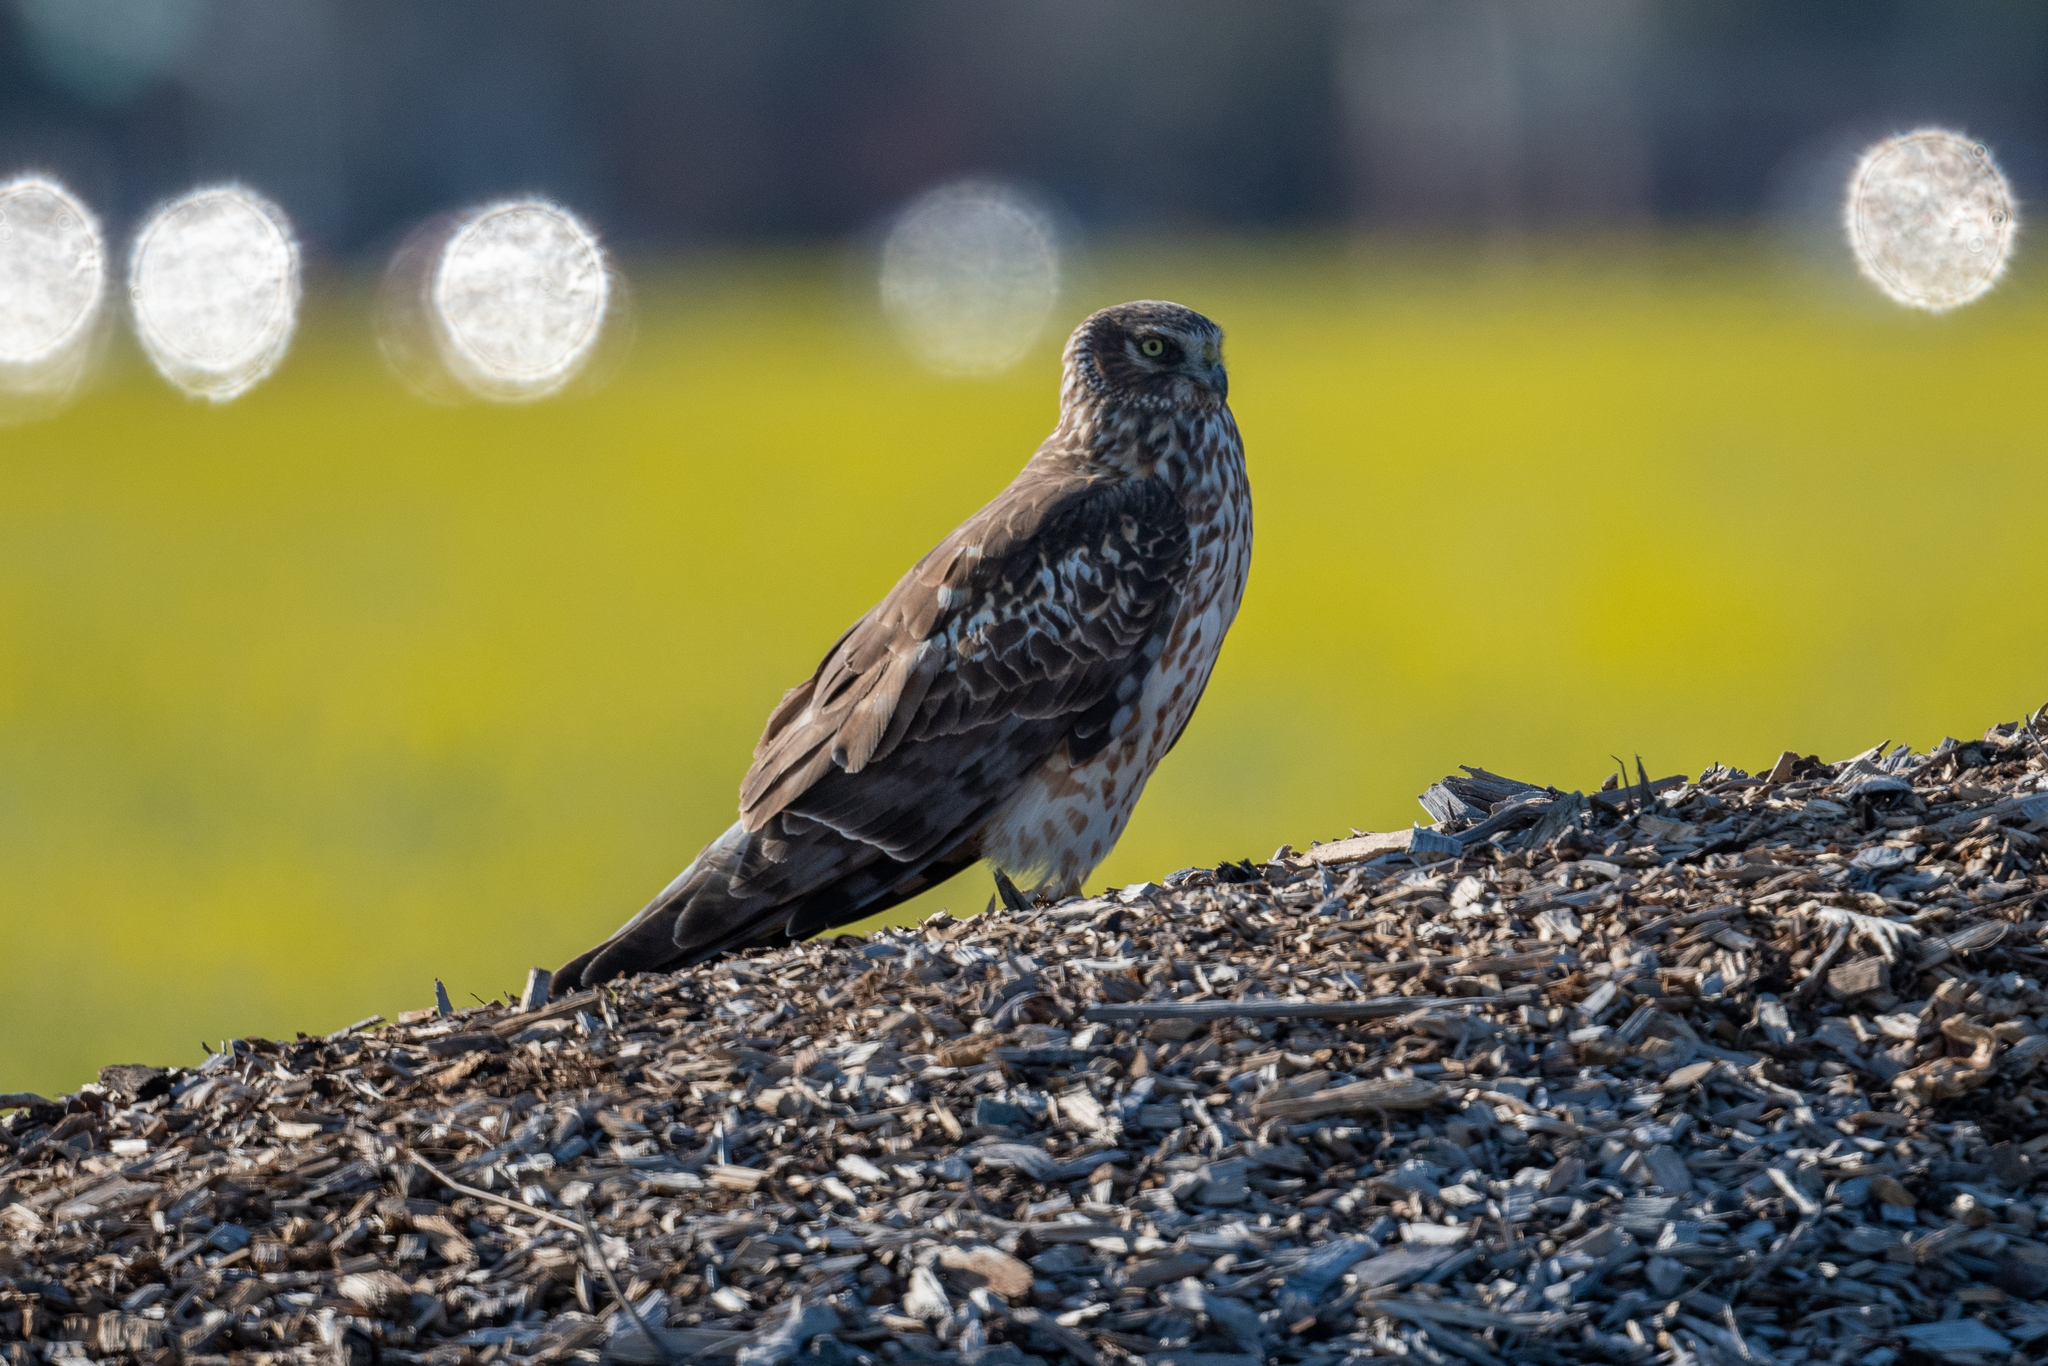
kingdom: Animalia
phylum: Chordata
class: Aves
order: Accipitriformes
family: Accipitridae
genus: Circus
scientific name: Circus cyaneus
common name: Hen harrier
